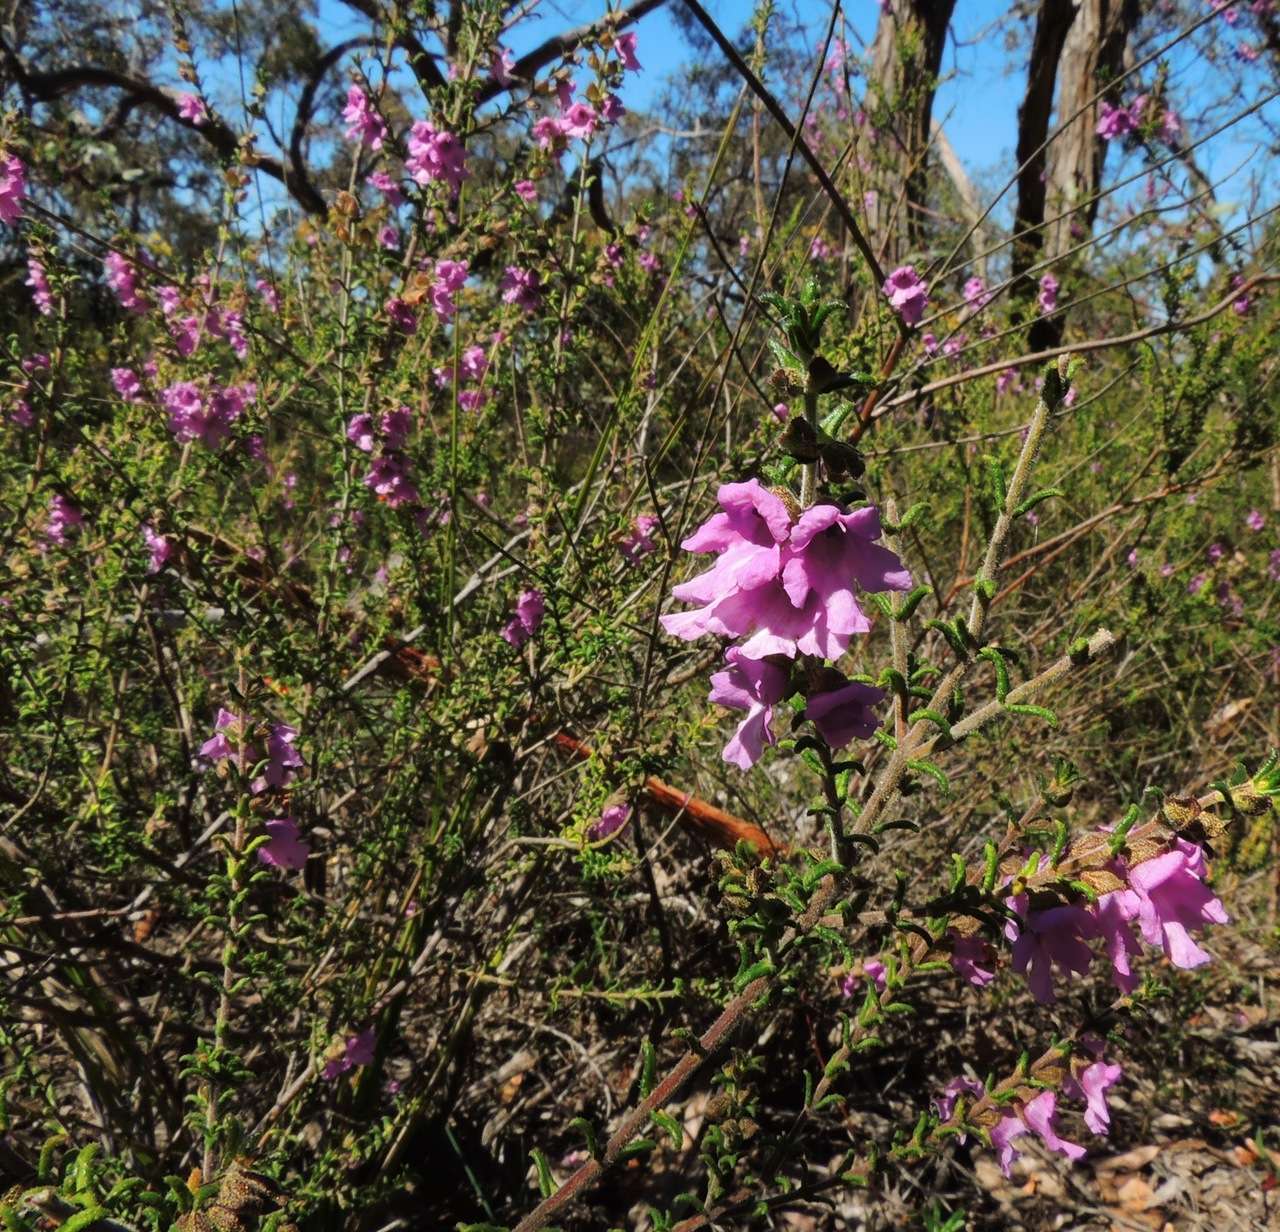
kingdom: Plantae
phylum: Tracheophyta
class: Magnoliopsida
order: Lamiales
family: Lamiaceae
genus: Prostanthera
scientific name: Prostanthera decussata
